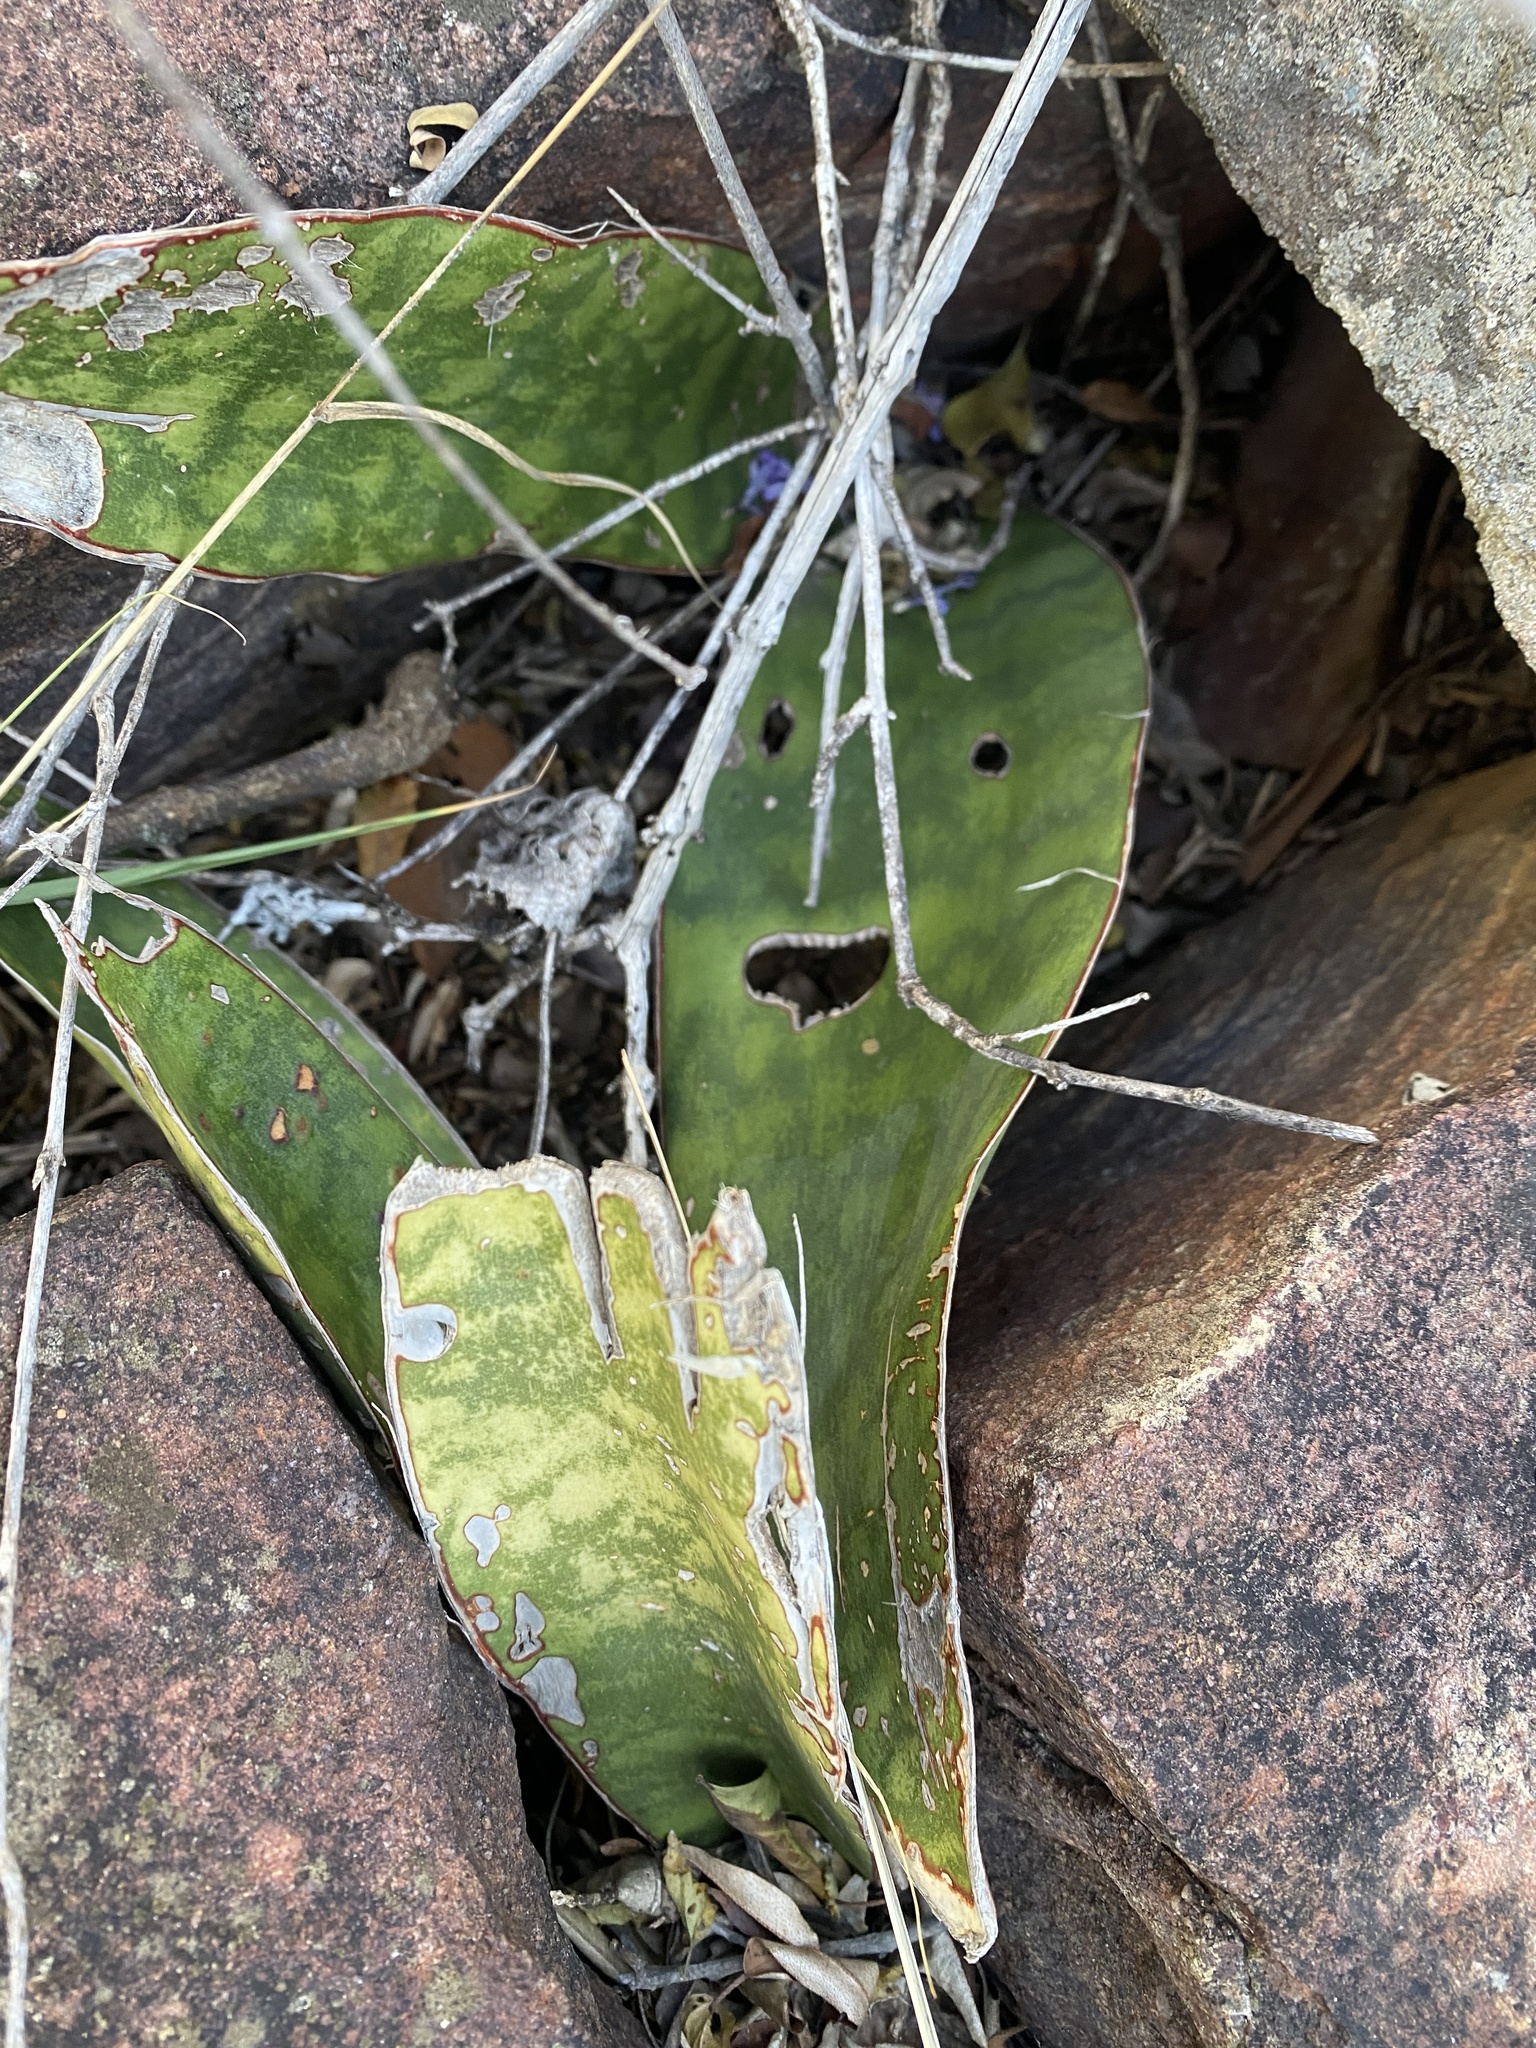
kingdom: Plantae
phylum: Tracheophyta
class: Liliopsida
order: Asparagales
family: Asparagaceae
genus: Dracaena
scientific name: Dracaena hyacinthoides
